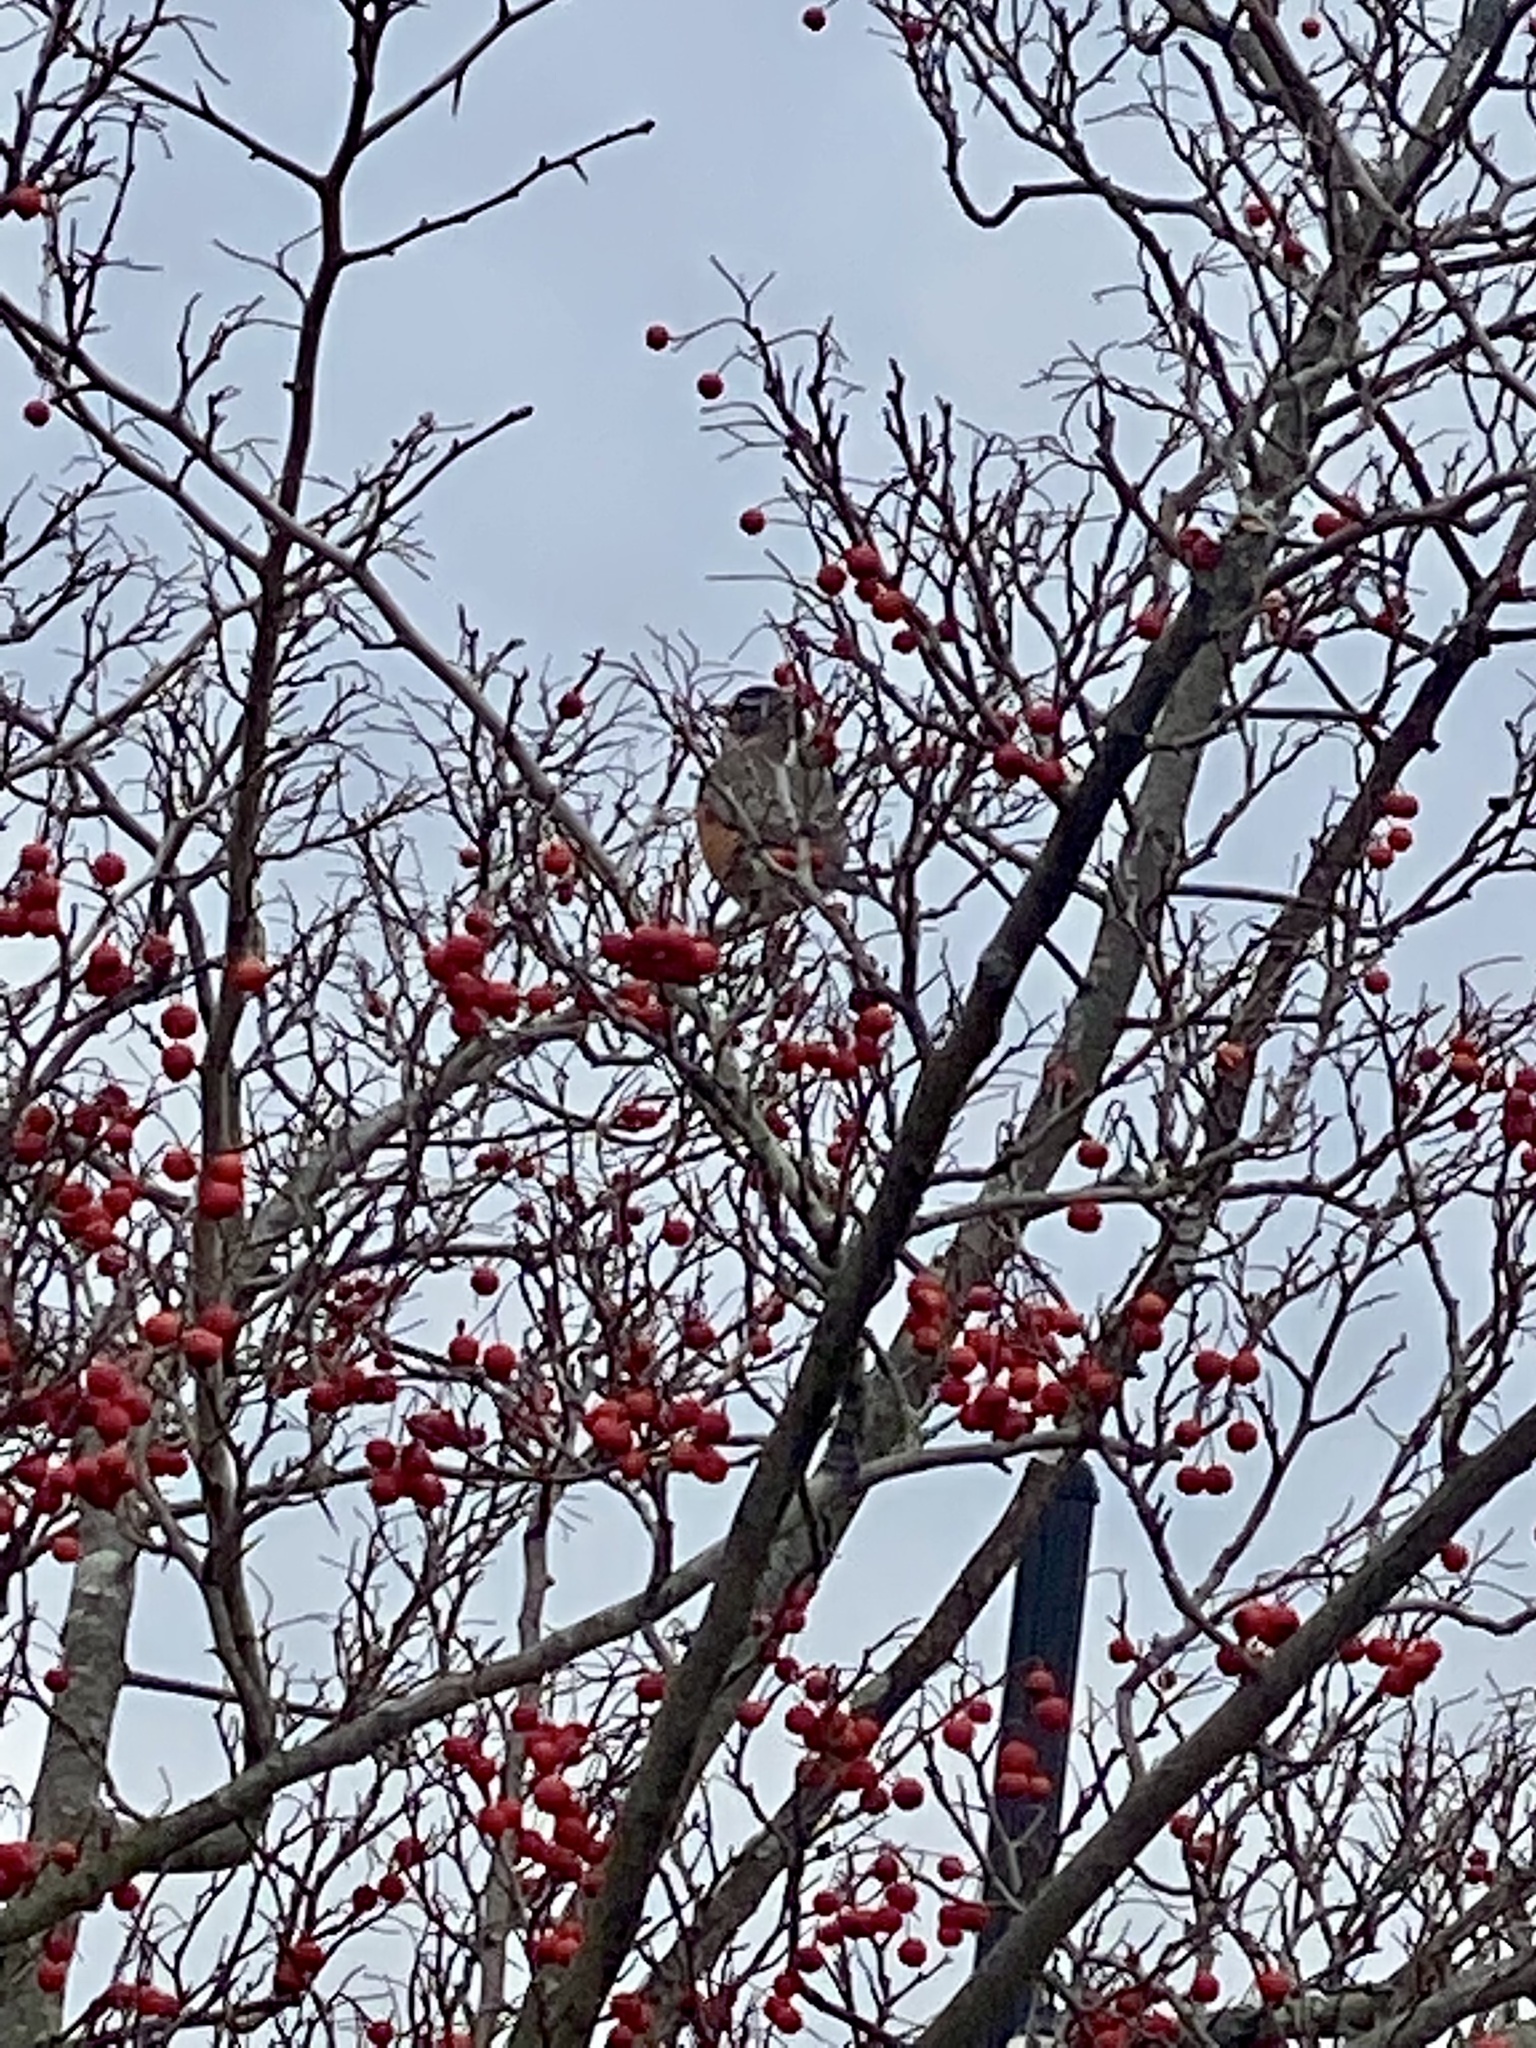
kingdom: Animalia
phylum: Chordata
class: Aves
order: Passeriformes
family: Turdidae
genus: Turdus
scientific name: Turdus migratorius
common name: American robin
